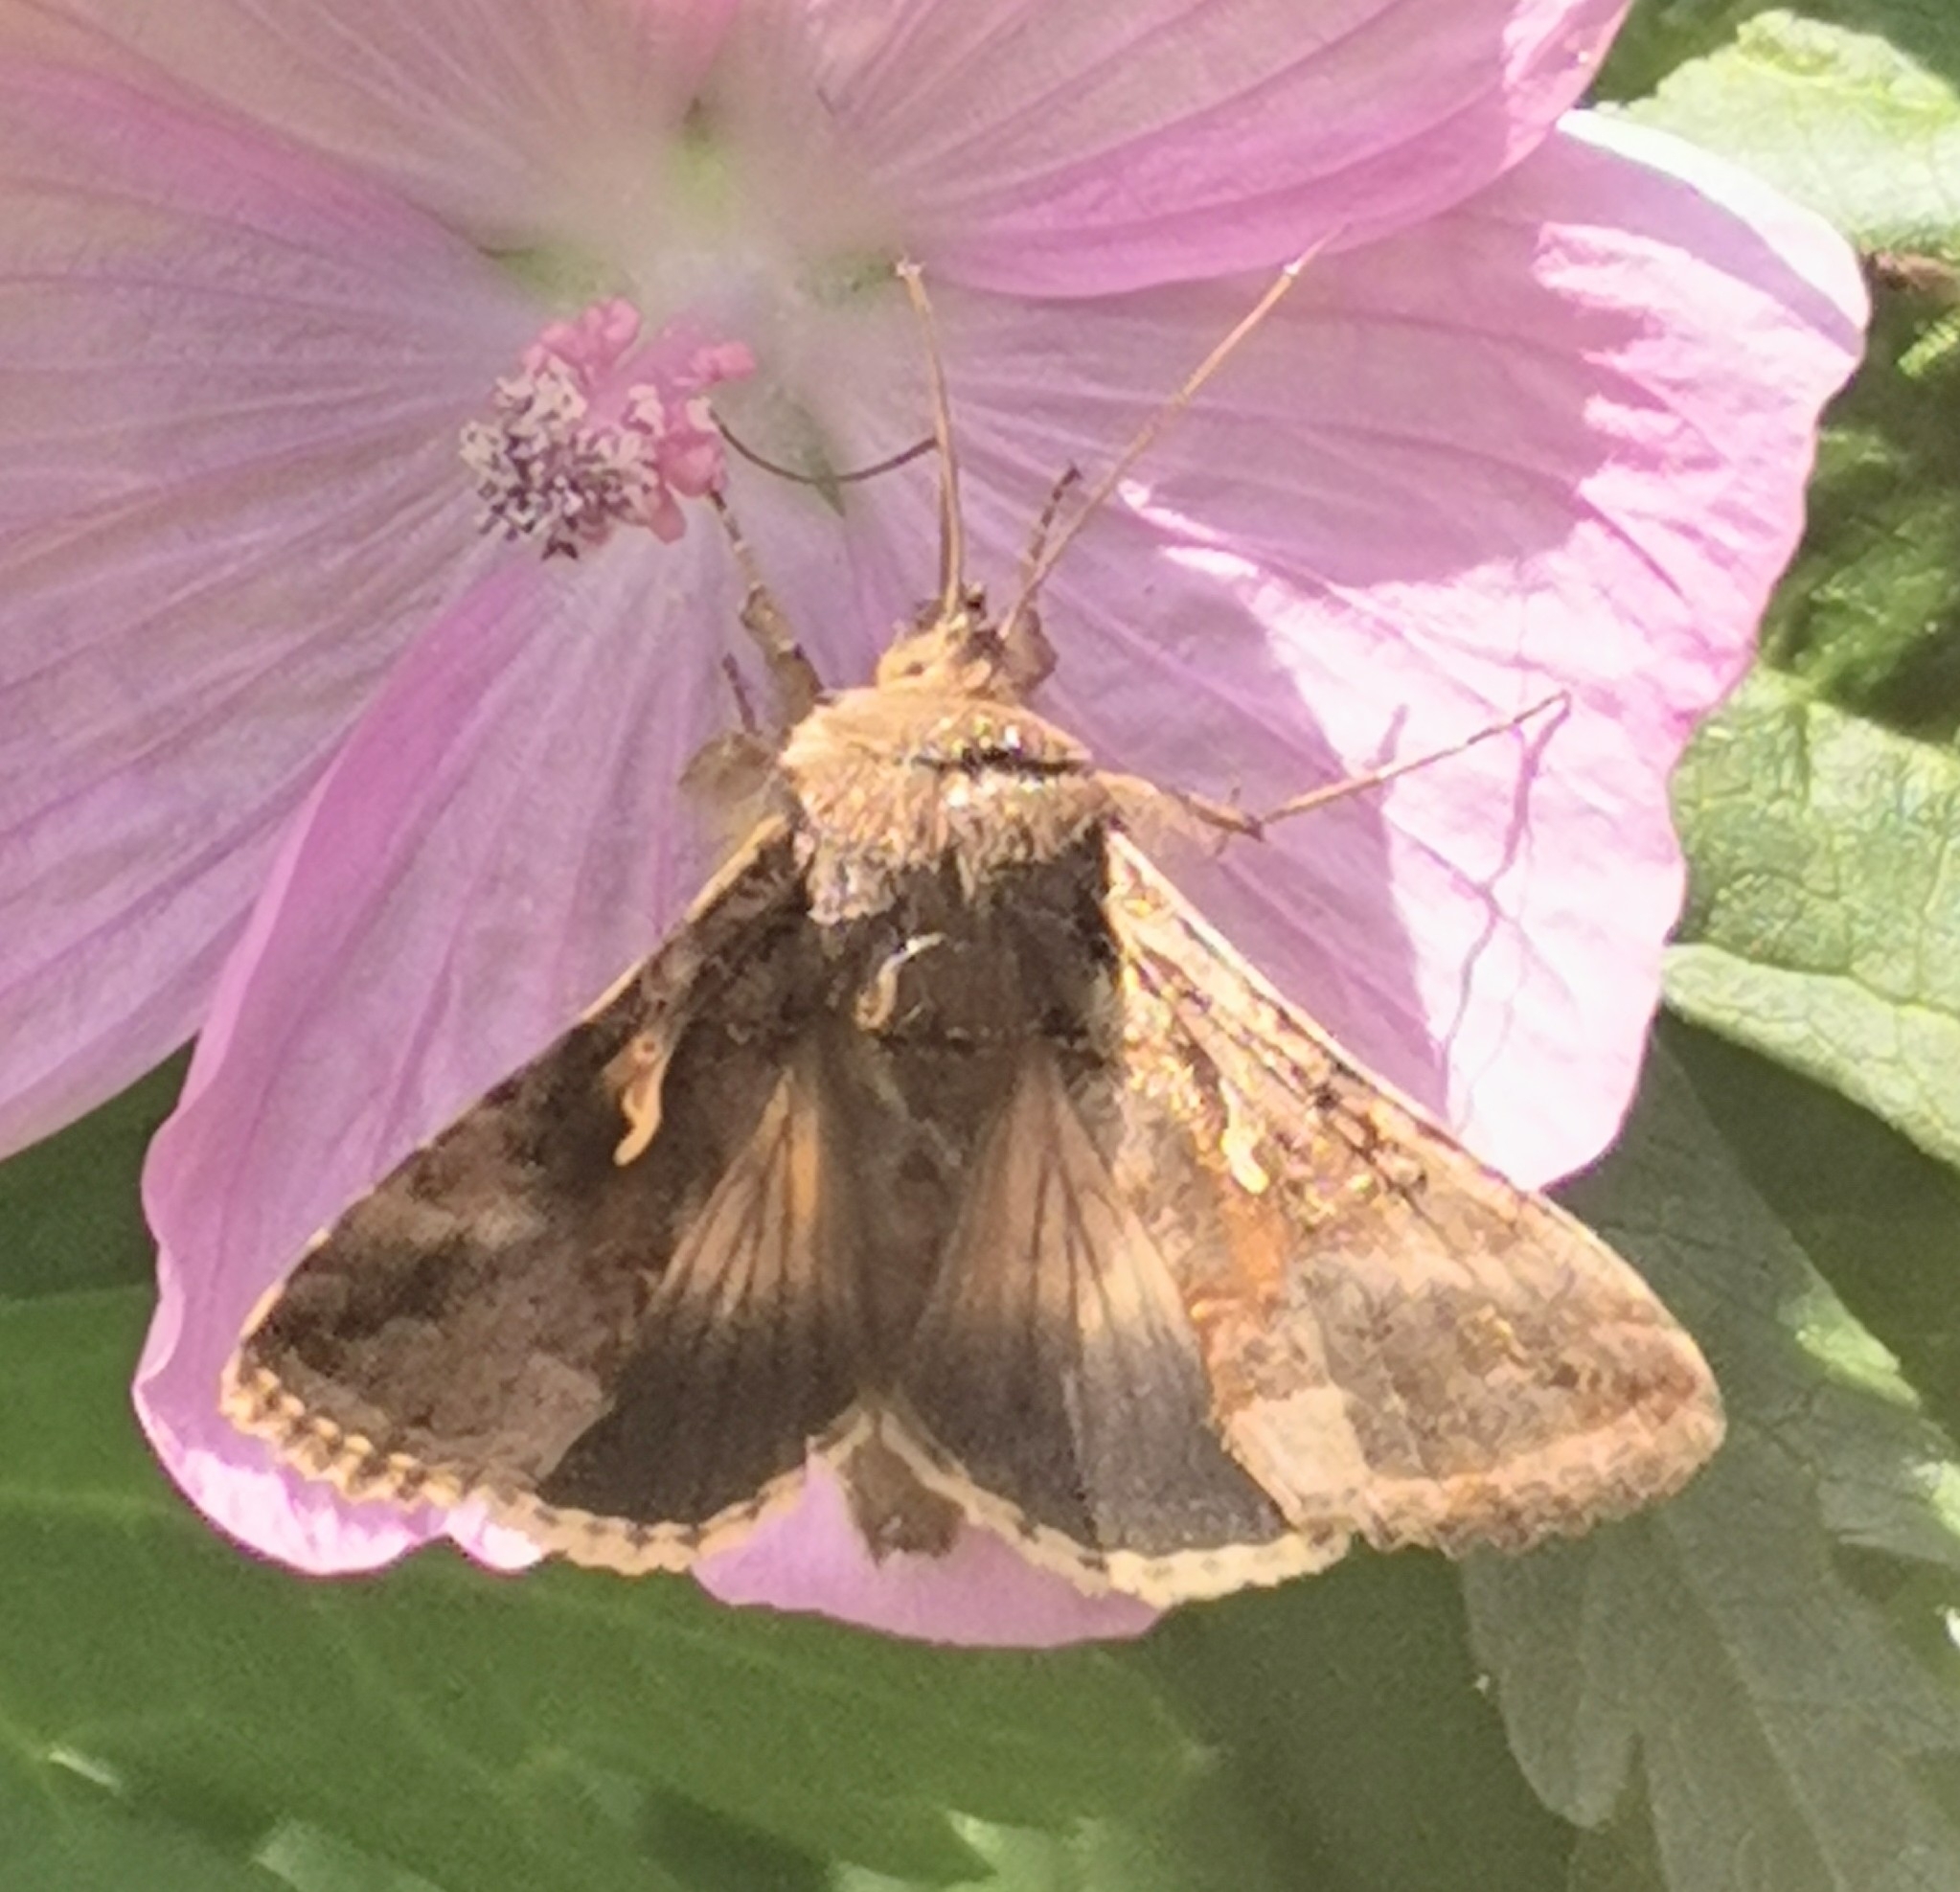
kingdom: Animalia
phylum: Arthropoda
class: Insecta
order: Lepidoptera
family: Noctuidae
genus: Autographa
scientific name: Autographa gamma
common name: Silver y
